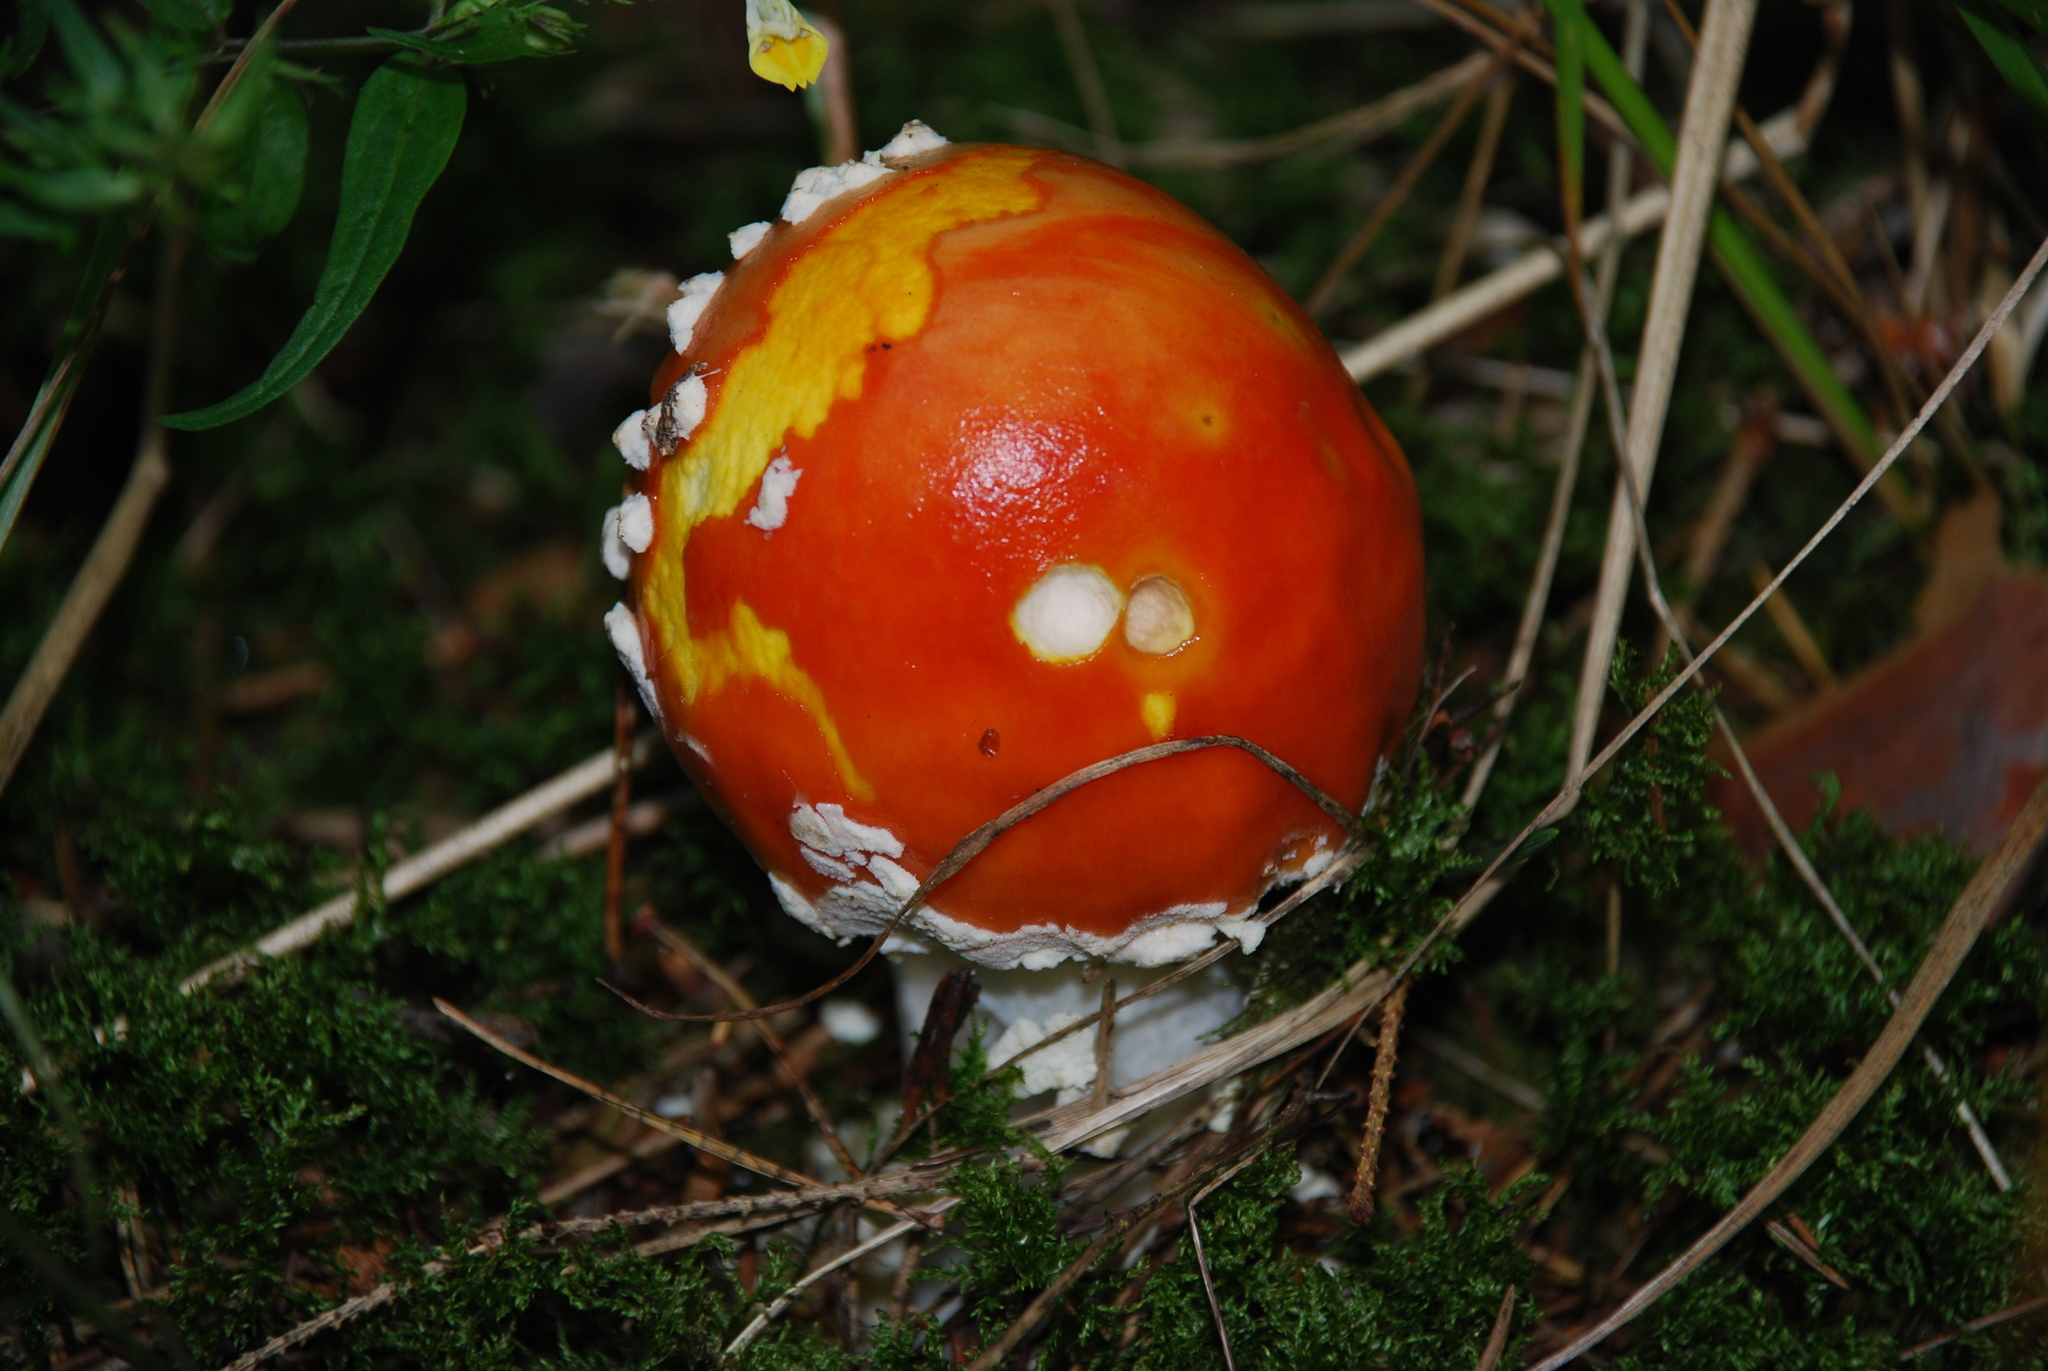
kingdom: Fungi
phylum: Basidiomycota
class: Agaricomycetes
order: Agaricales
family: Amanitaceae
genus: Amanita
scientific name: Amanita muscaria
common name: Fly agaric
